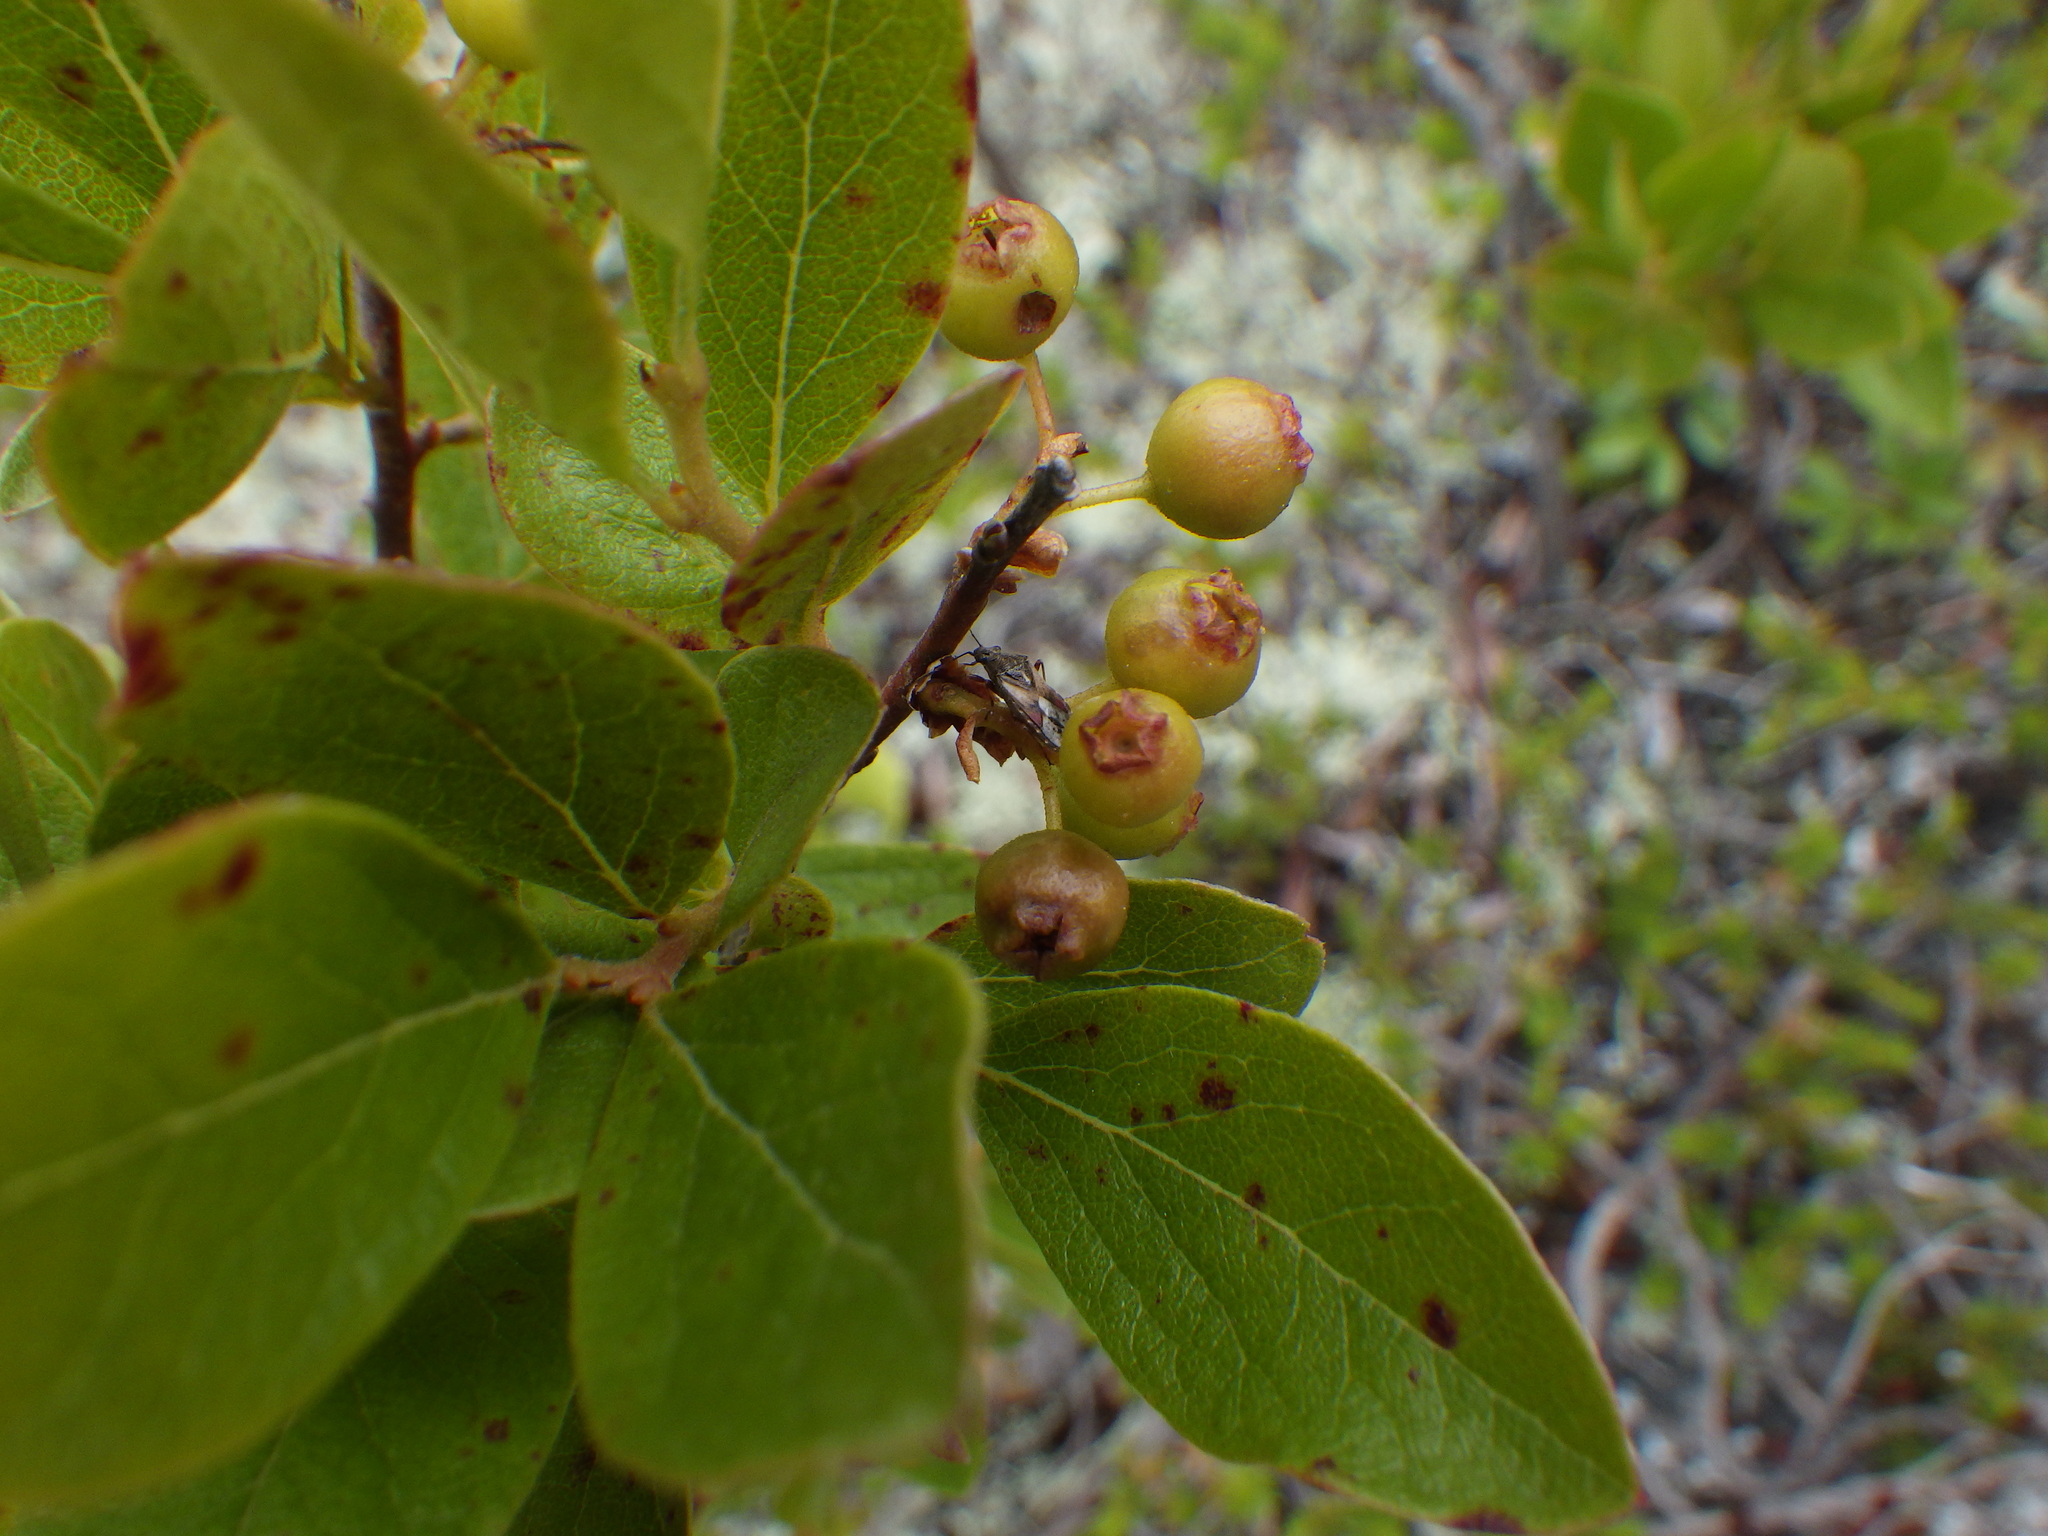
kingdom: Plantae
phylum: Tracheophyta
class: Magnoliopsida
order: Ericales
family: Ericaceae
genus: Gaylussacia
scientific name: Gaylussacia baccata
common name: Black huckleberry
